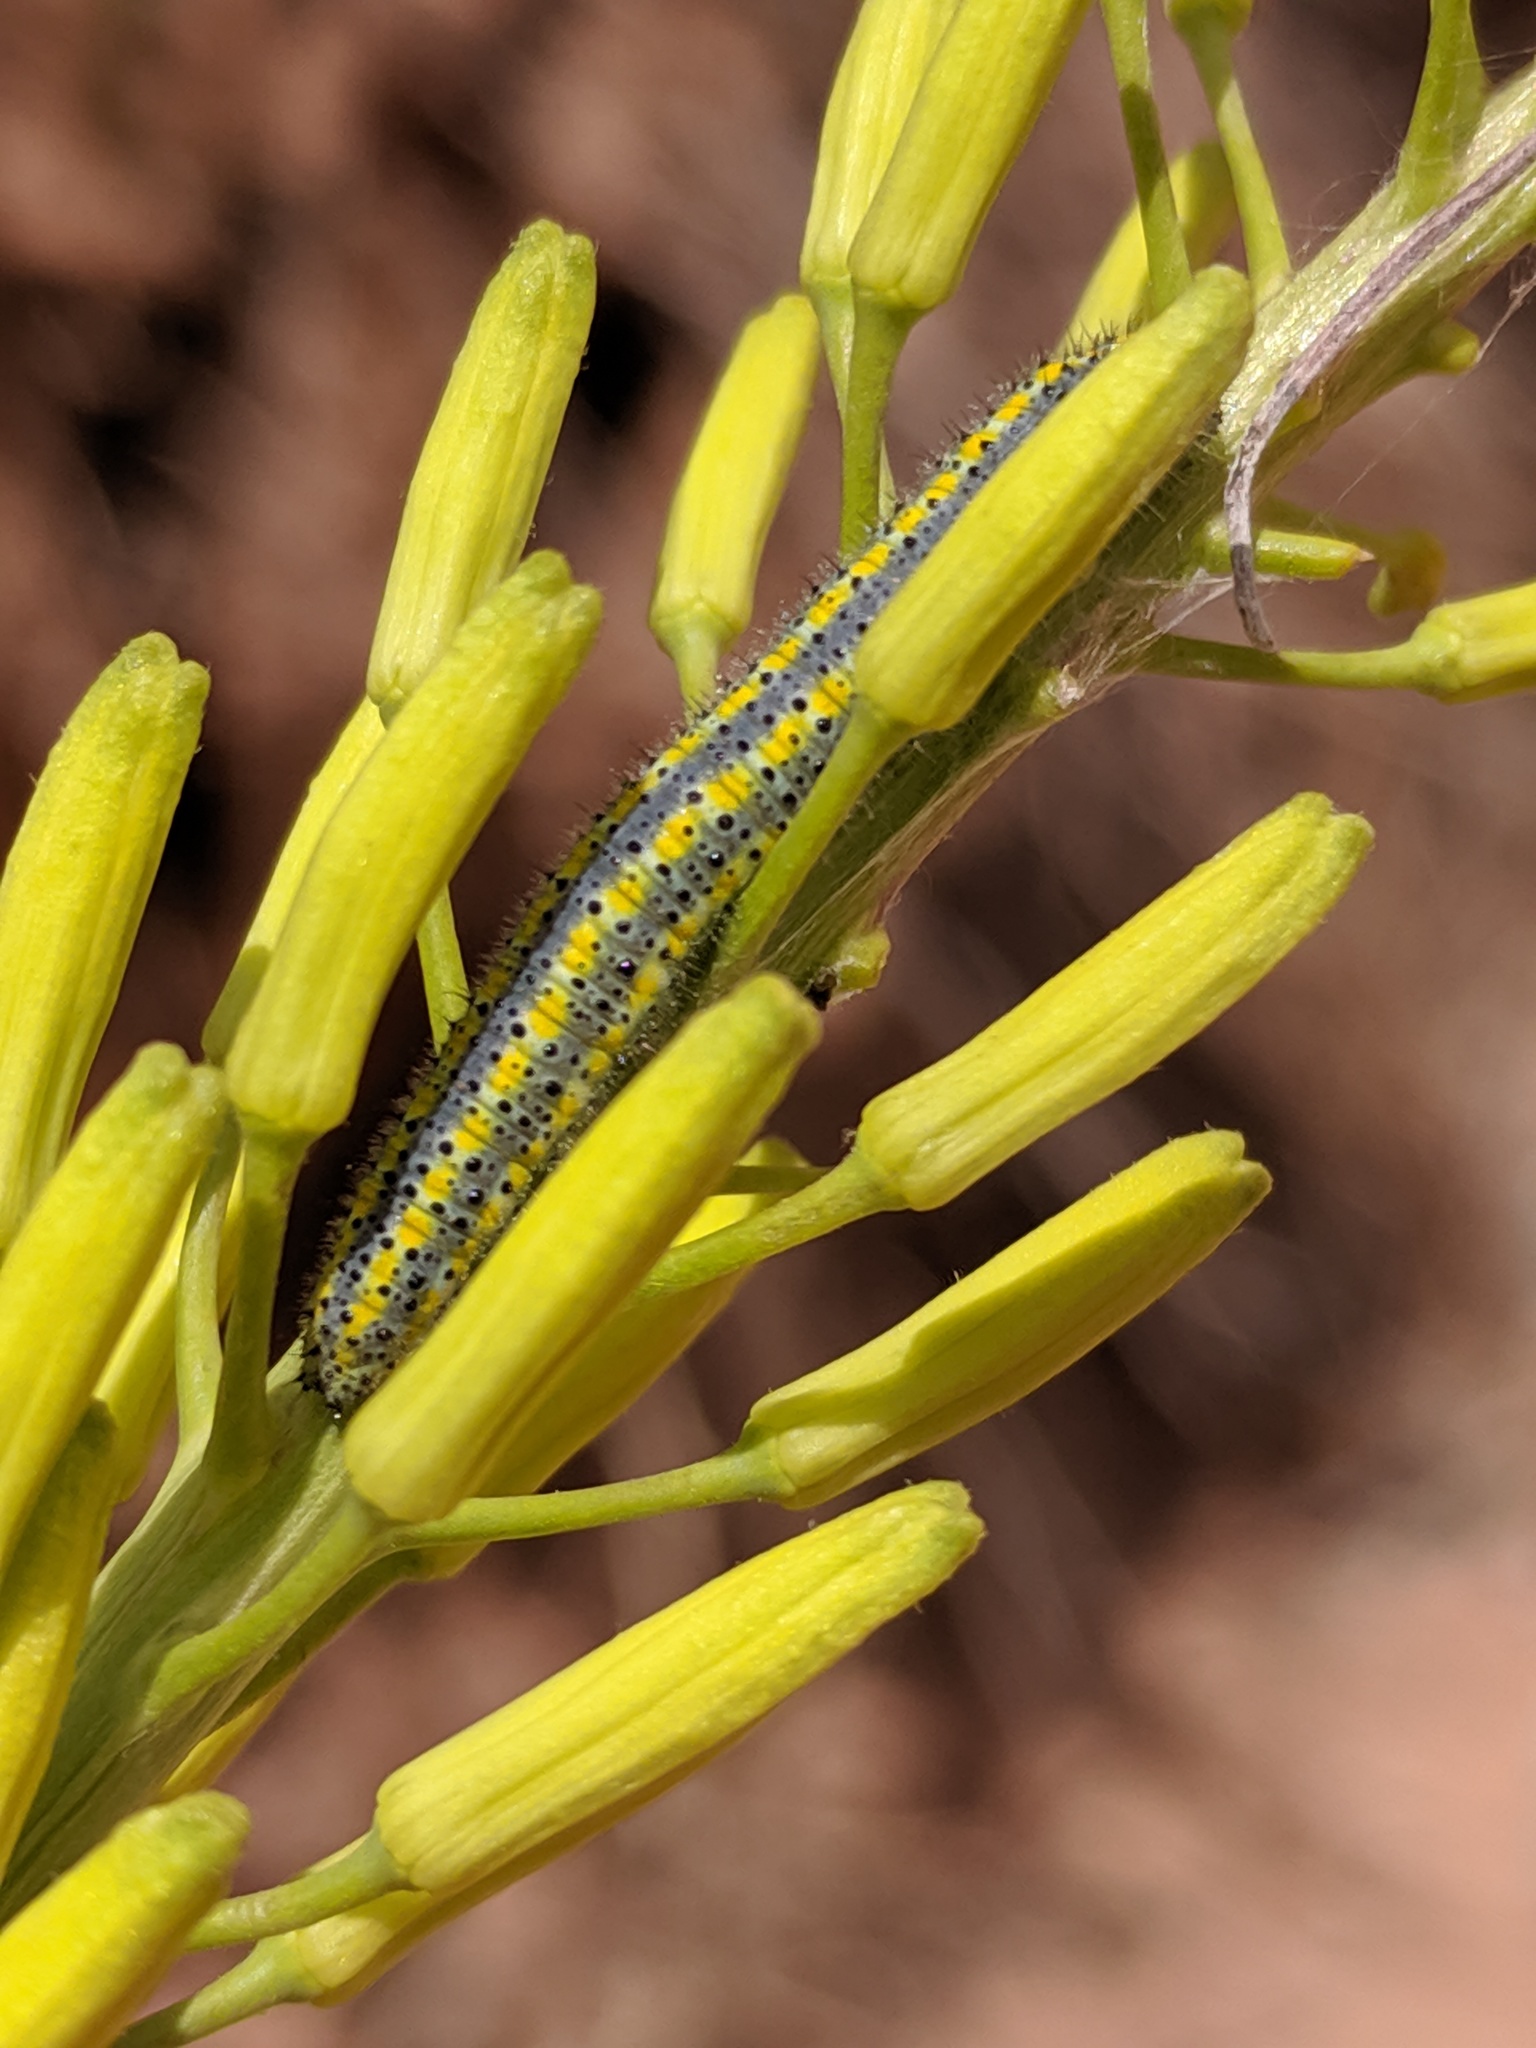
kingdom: Animalia
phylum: Arthropoda
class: Insecta
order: Lepidoptera
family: Pieridae
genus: Pontia
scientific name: Pontia protodice
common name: Checkered white
